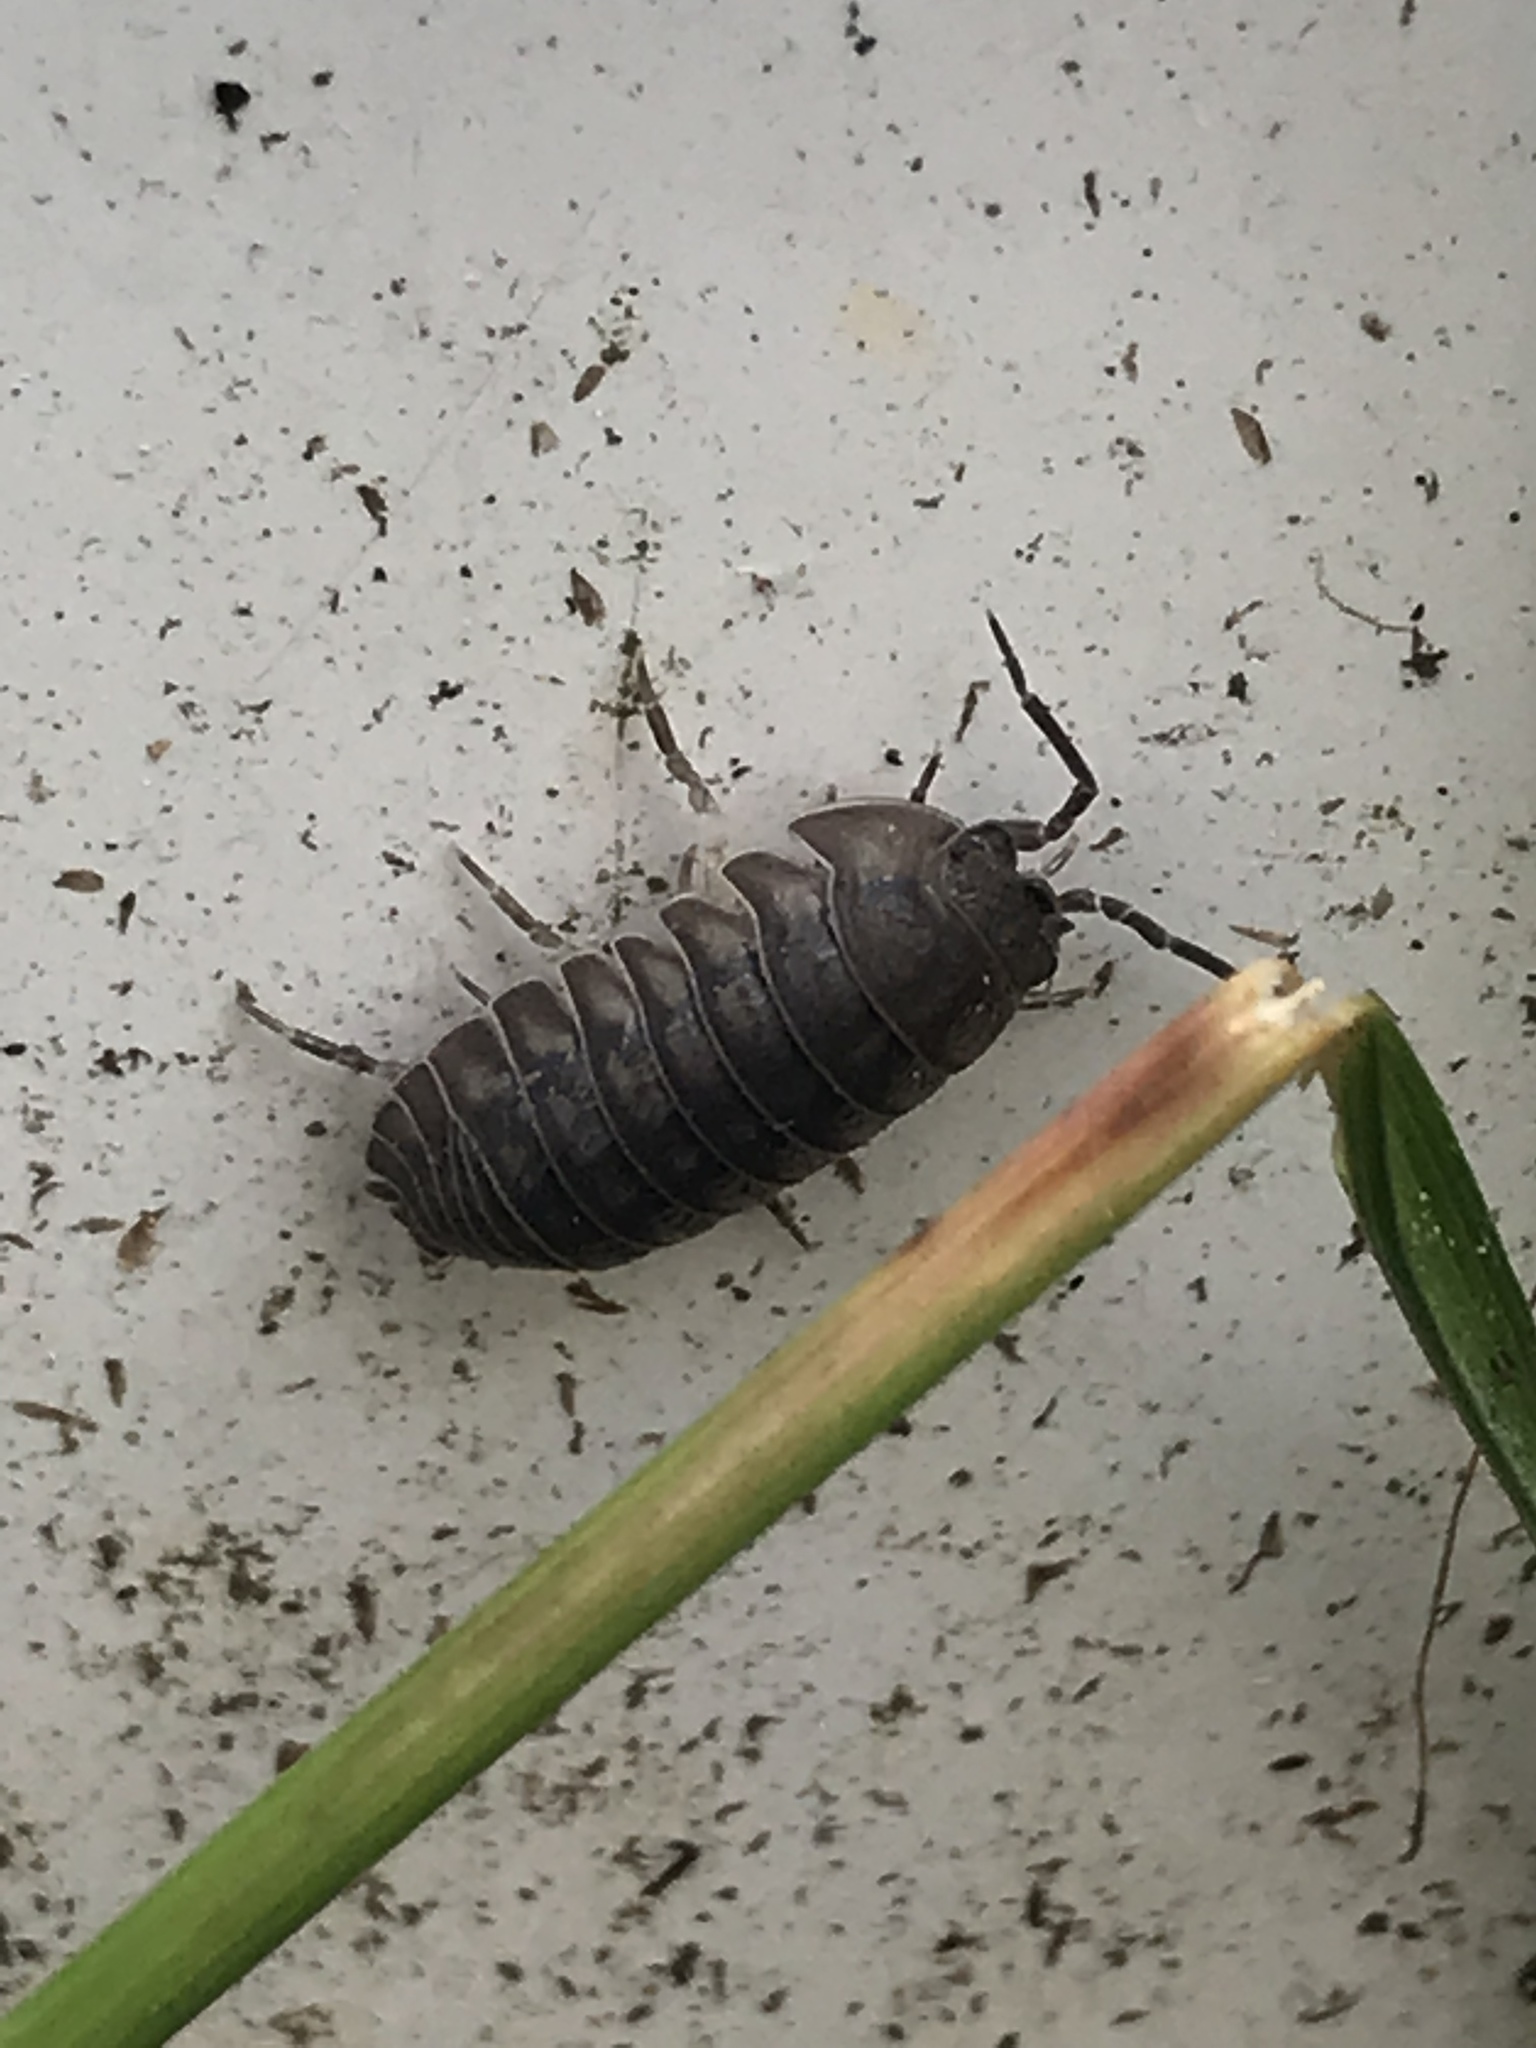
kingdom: Animalia
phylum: Arthropoda
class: Malacostraca
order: Isopoda
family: Armadillidiidae
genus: Armadillidium
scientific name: Armadillidium nasatum
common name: Isopod
